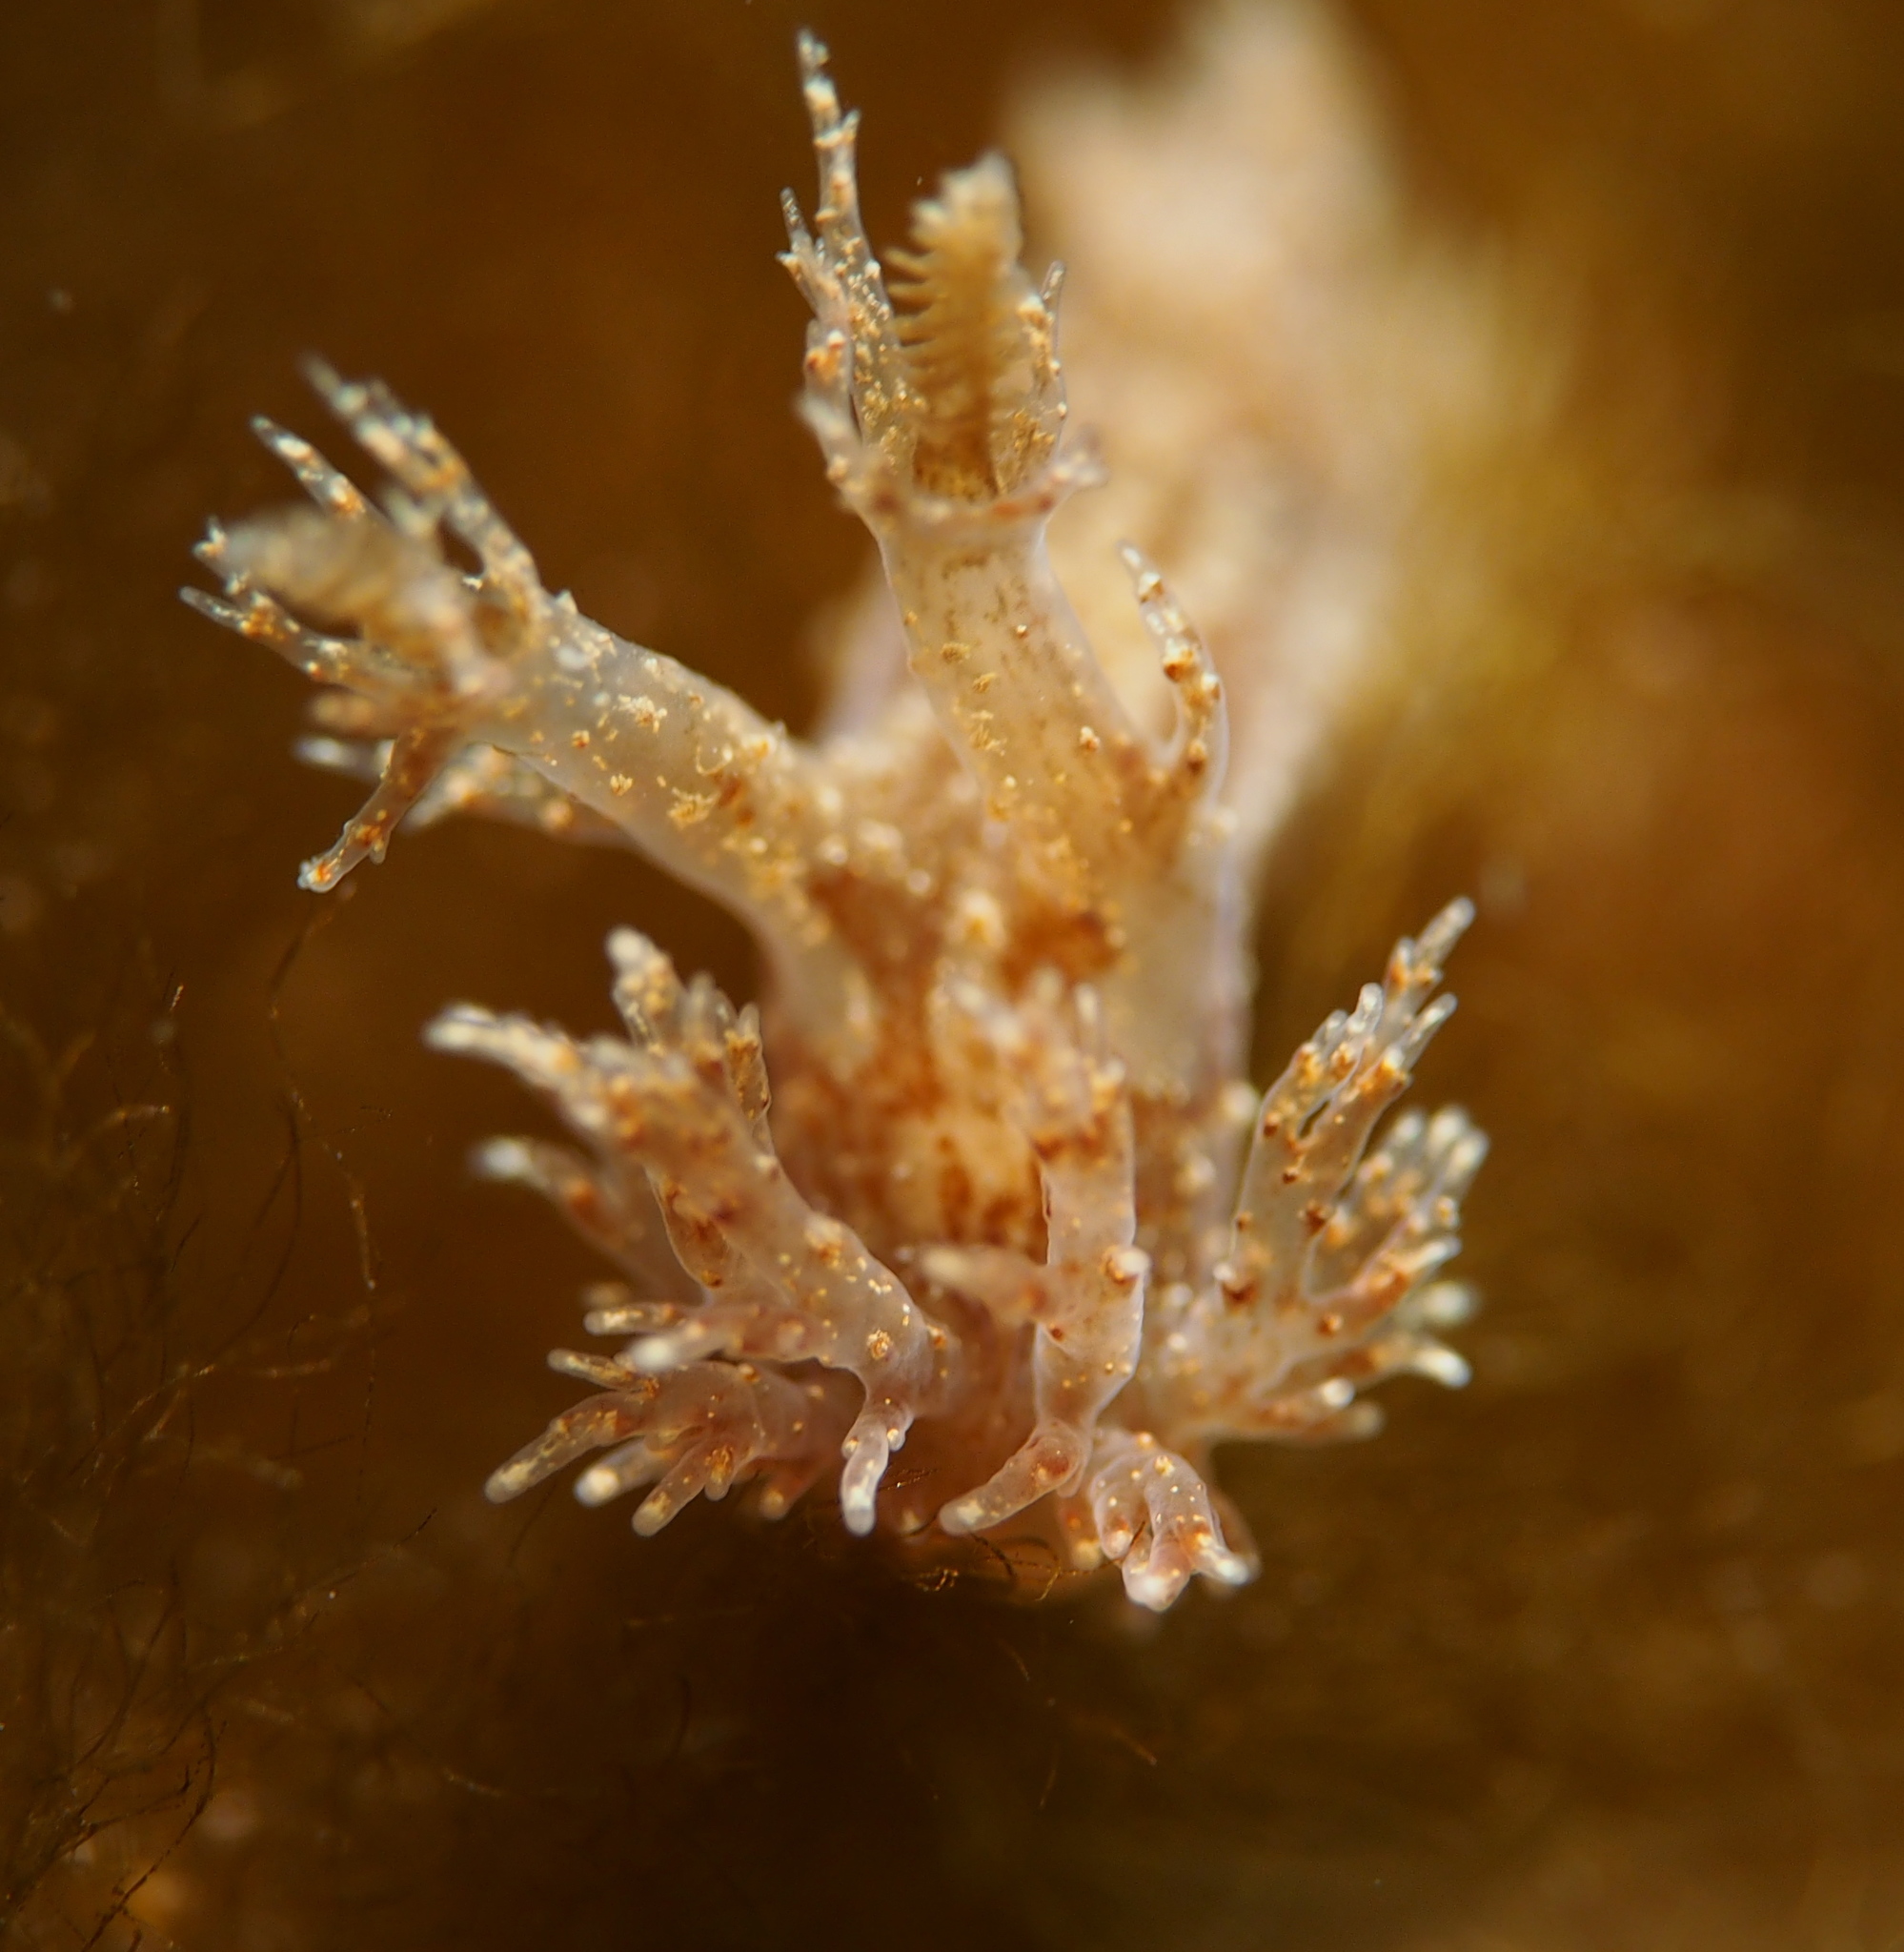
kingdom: Animalia
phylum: Mollusca
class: Gastropoda
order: Nudibranchia
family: Dendronotidae
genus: Dendronotus
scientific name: Dendronotus frondosus
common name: Bushy-backed nudibranch
